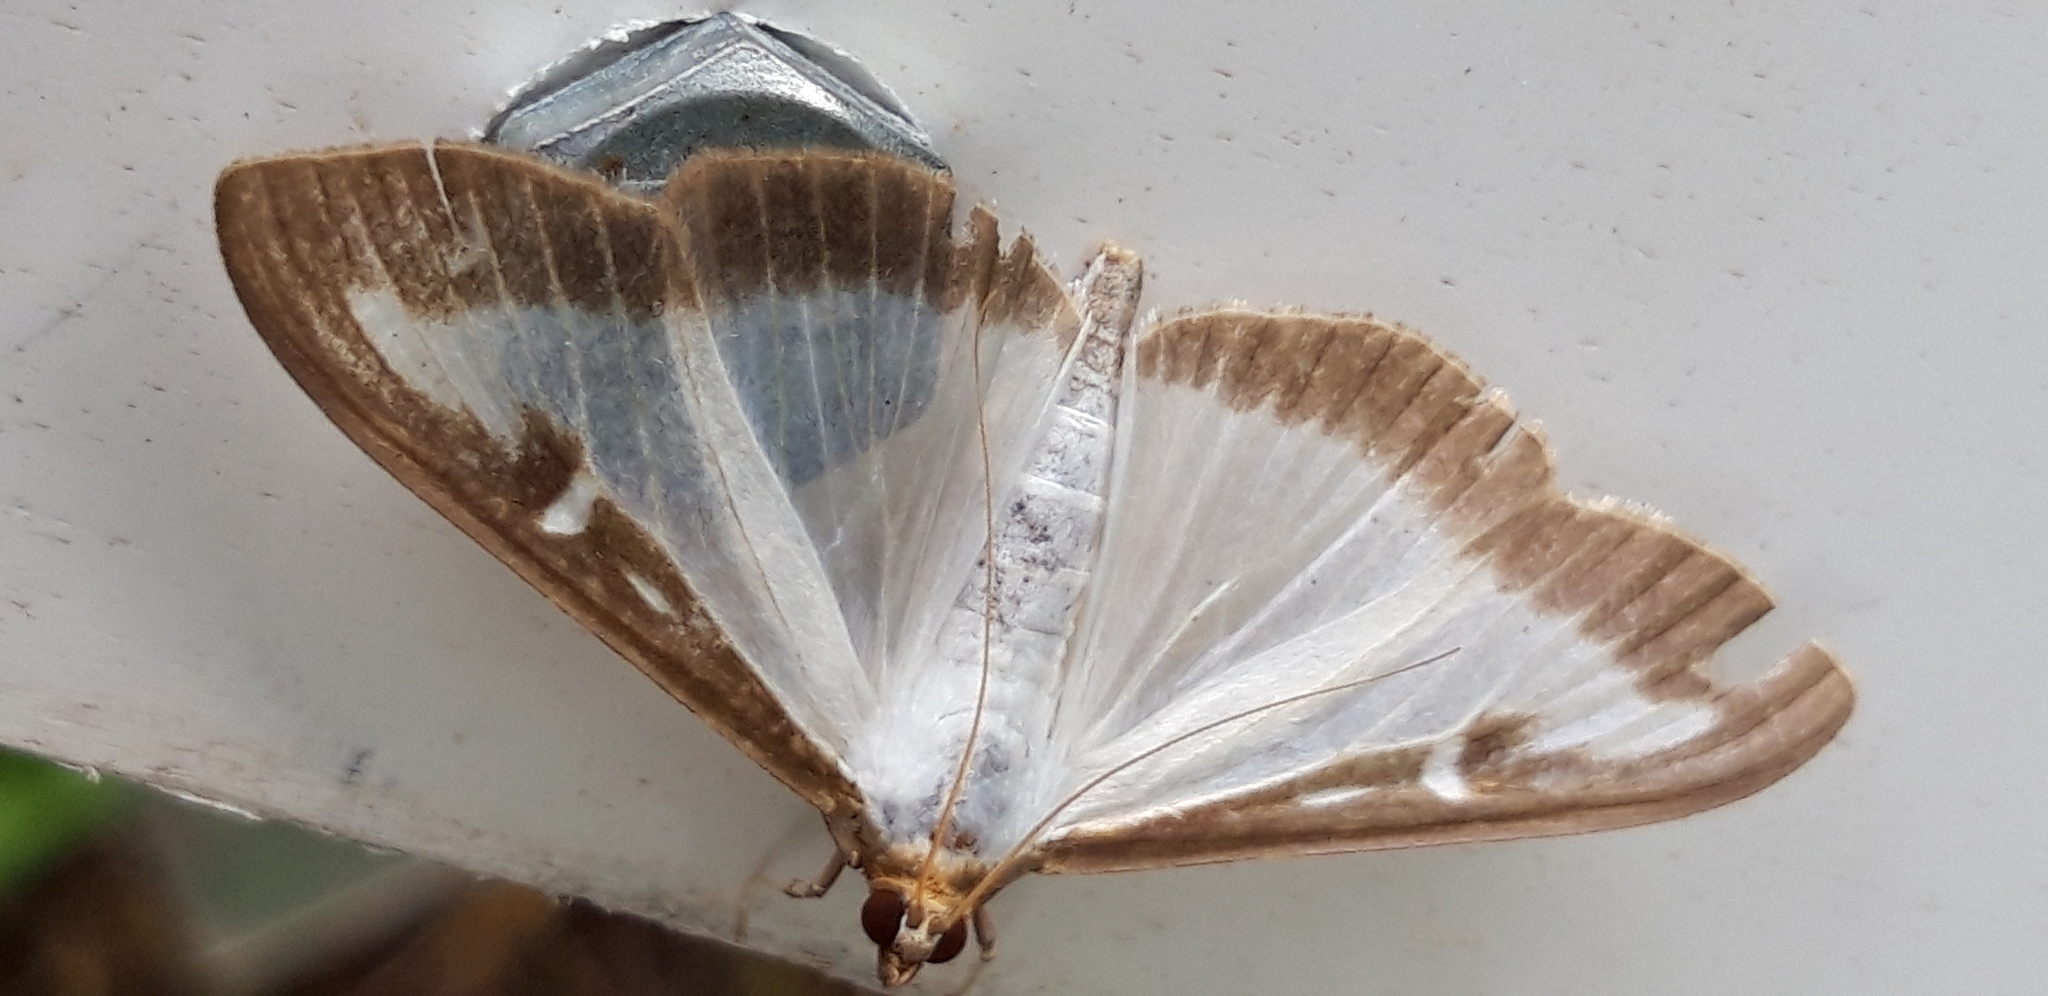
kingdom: Animalia
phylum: Arthropoda
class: Insecta
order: Lepidoptera
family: Crambidae
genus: Cydalima
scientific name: Cydalima perspectalis
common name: Box tree moth
